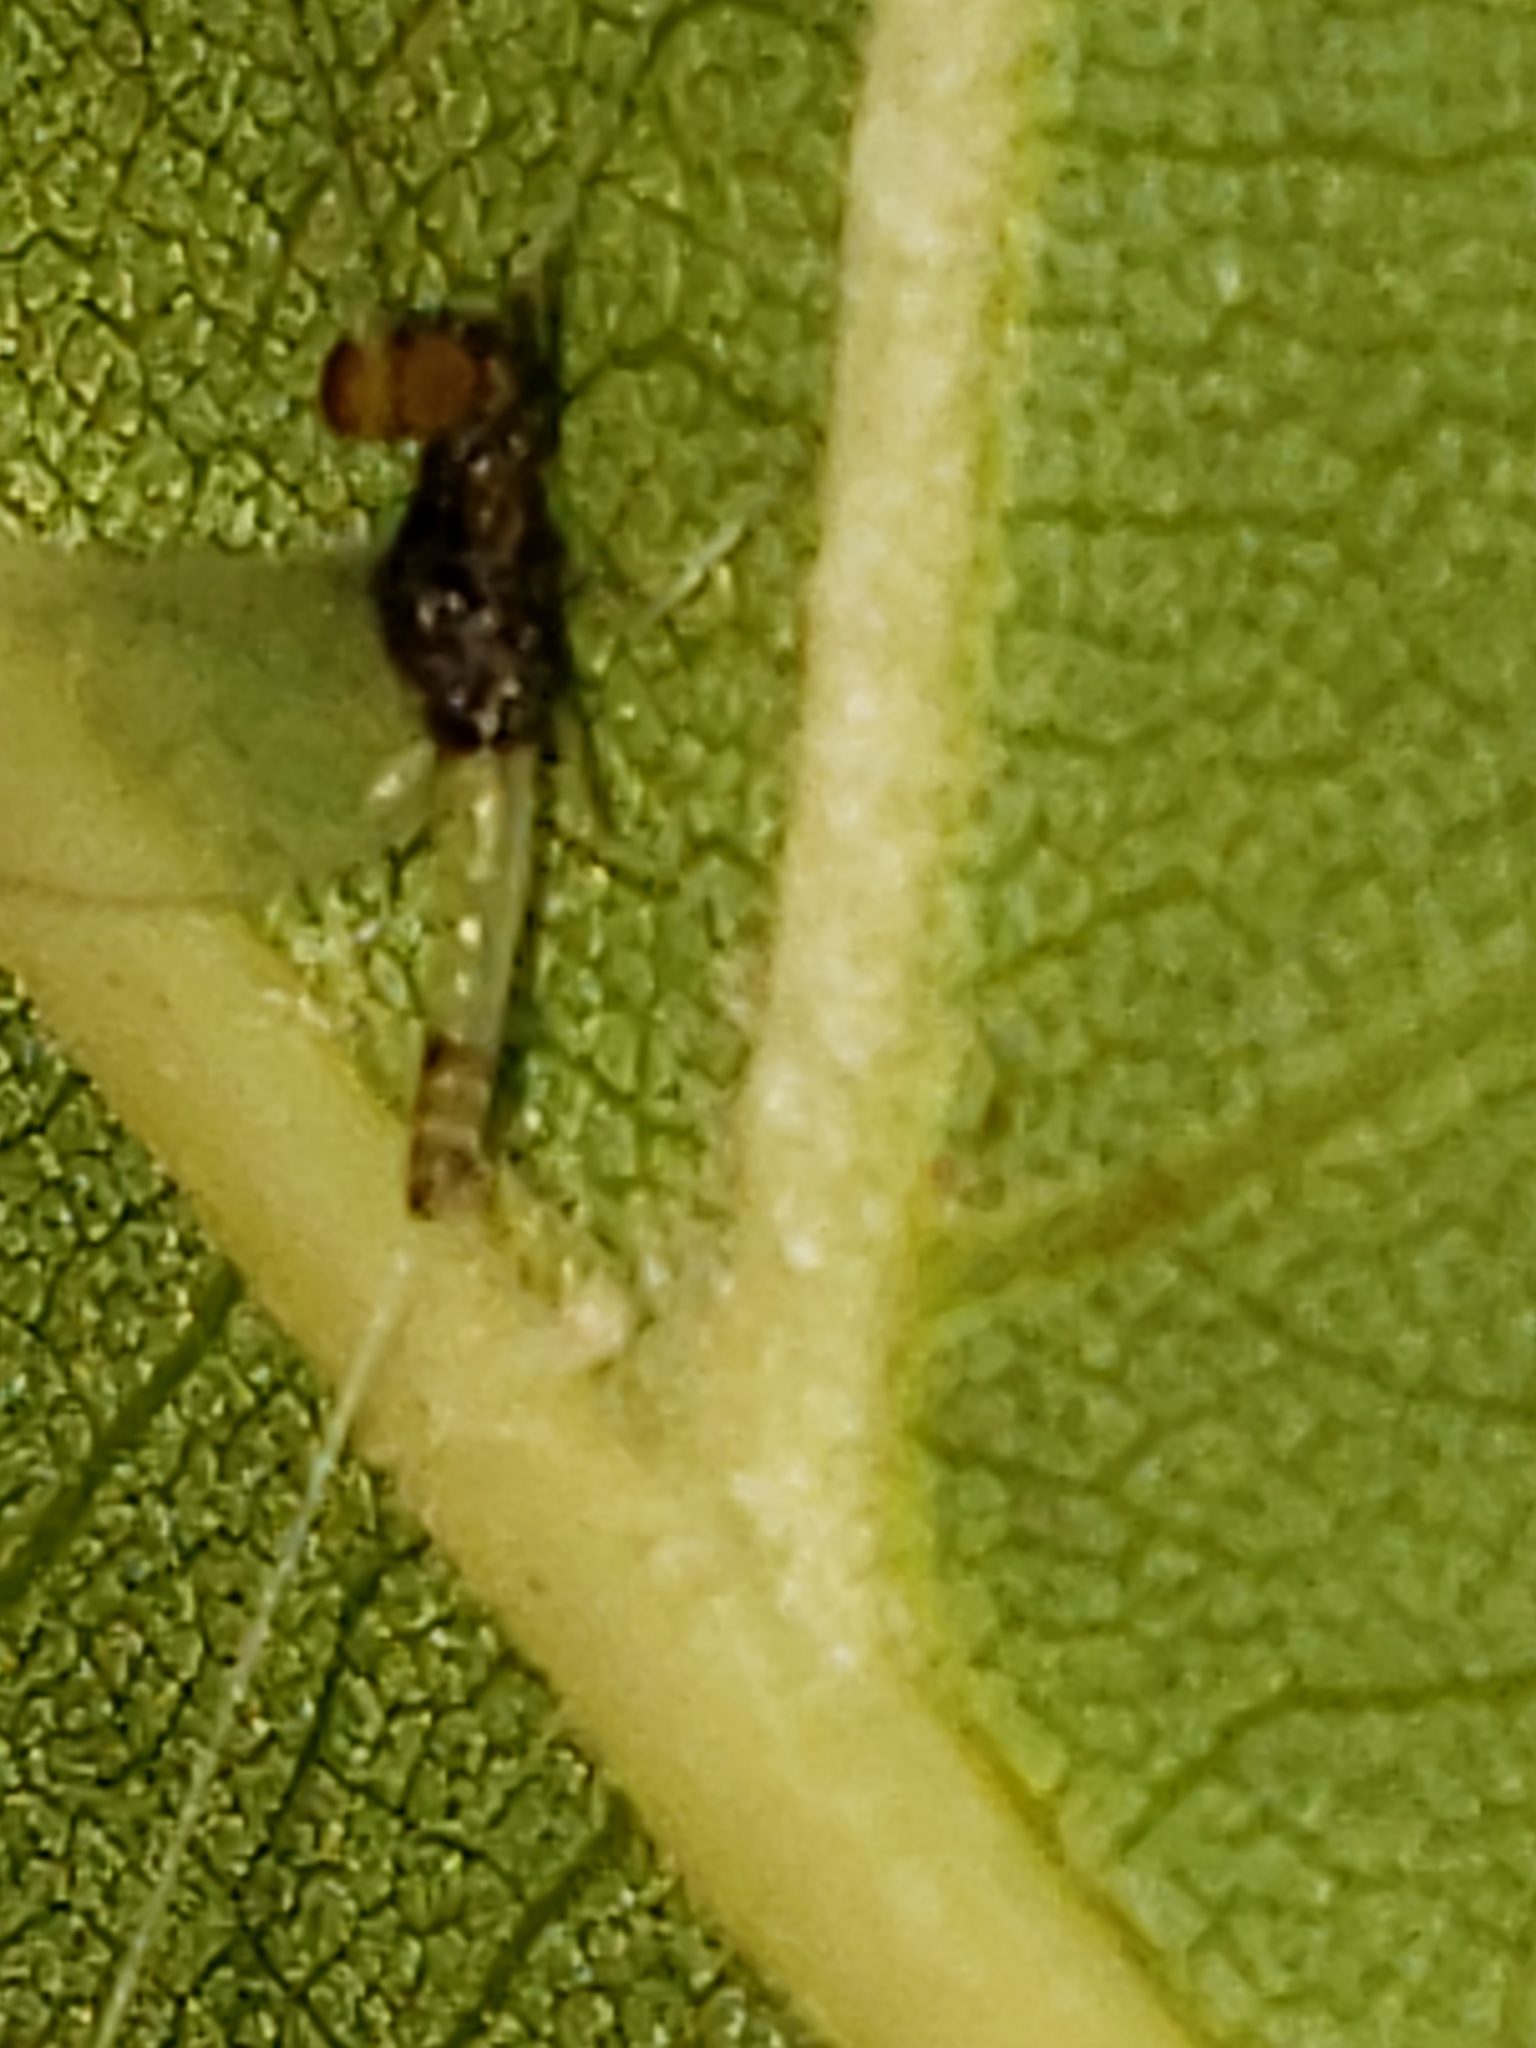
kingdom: Animalia
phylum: Arthropoda
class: Insecta
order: Ephemeroptera
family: Baetidae
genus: Baetis
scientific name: Baetis intercalaris
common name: Small eastern blue-winged olive
